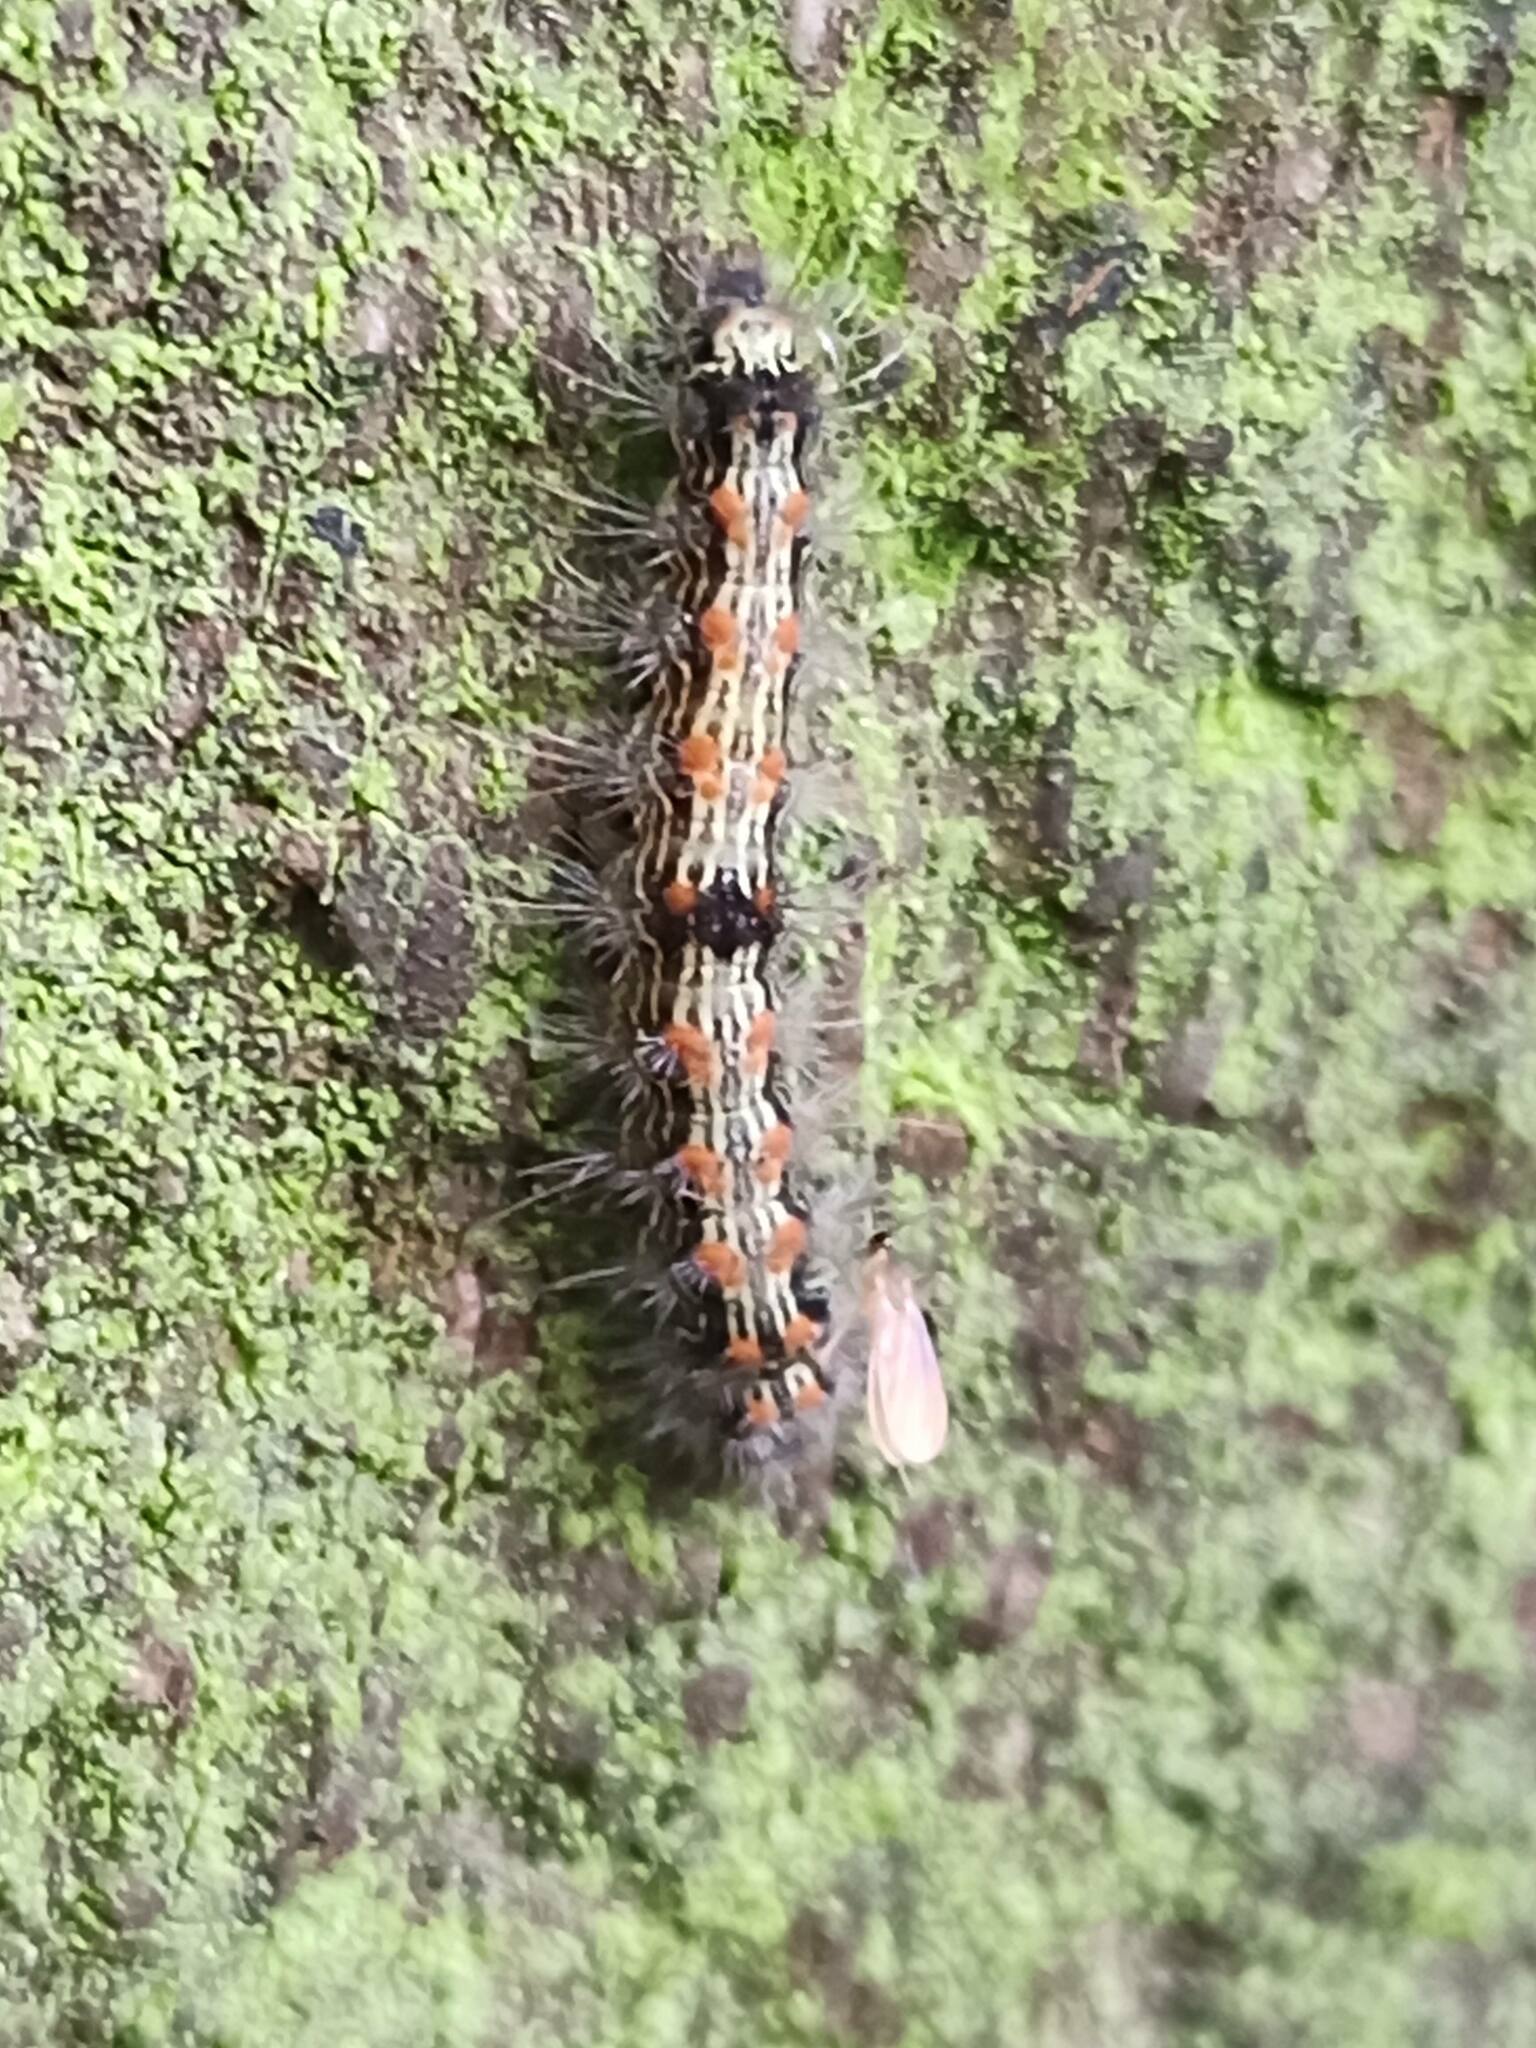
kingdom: Animalia
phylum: Arthropoda
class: Insecta
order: Lepidoptera
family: Erebidae
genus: Lithosia
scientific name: Lithosia quadra
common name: Four-spotted footman
